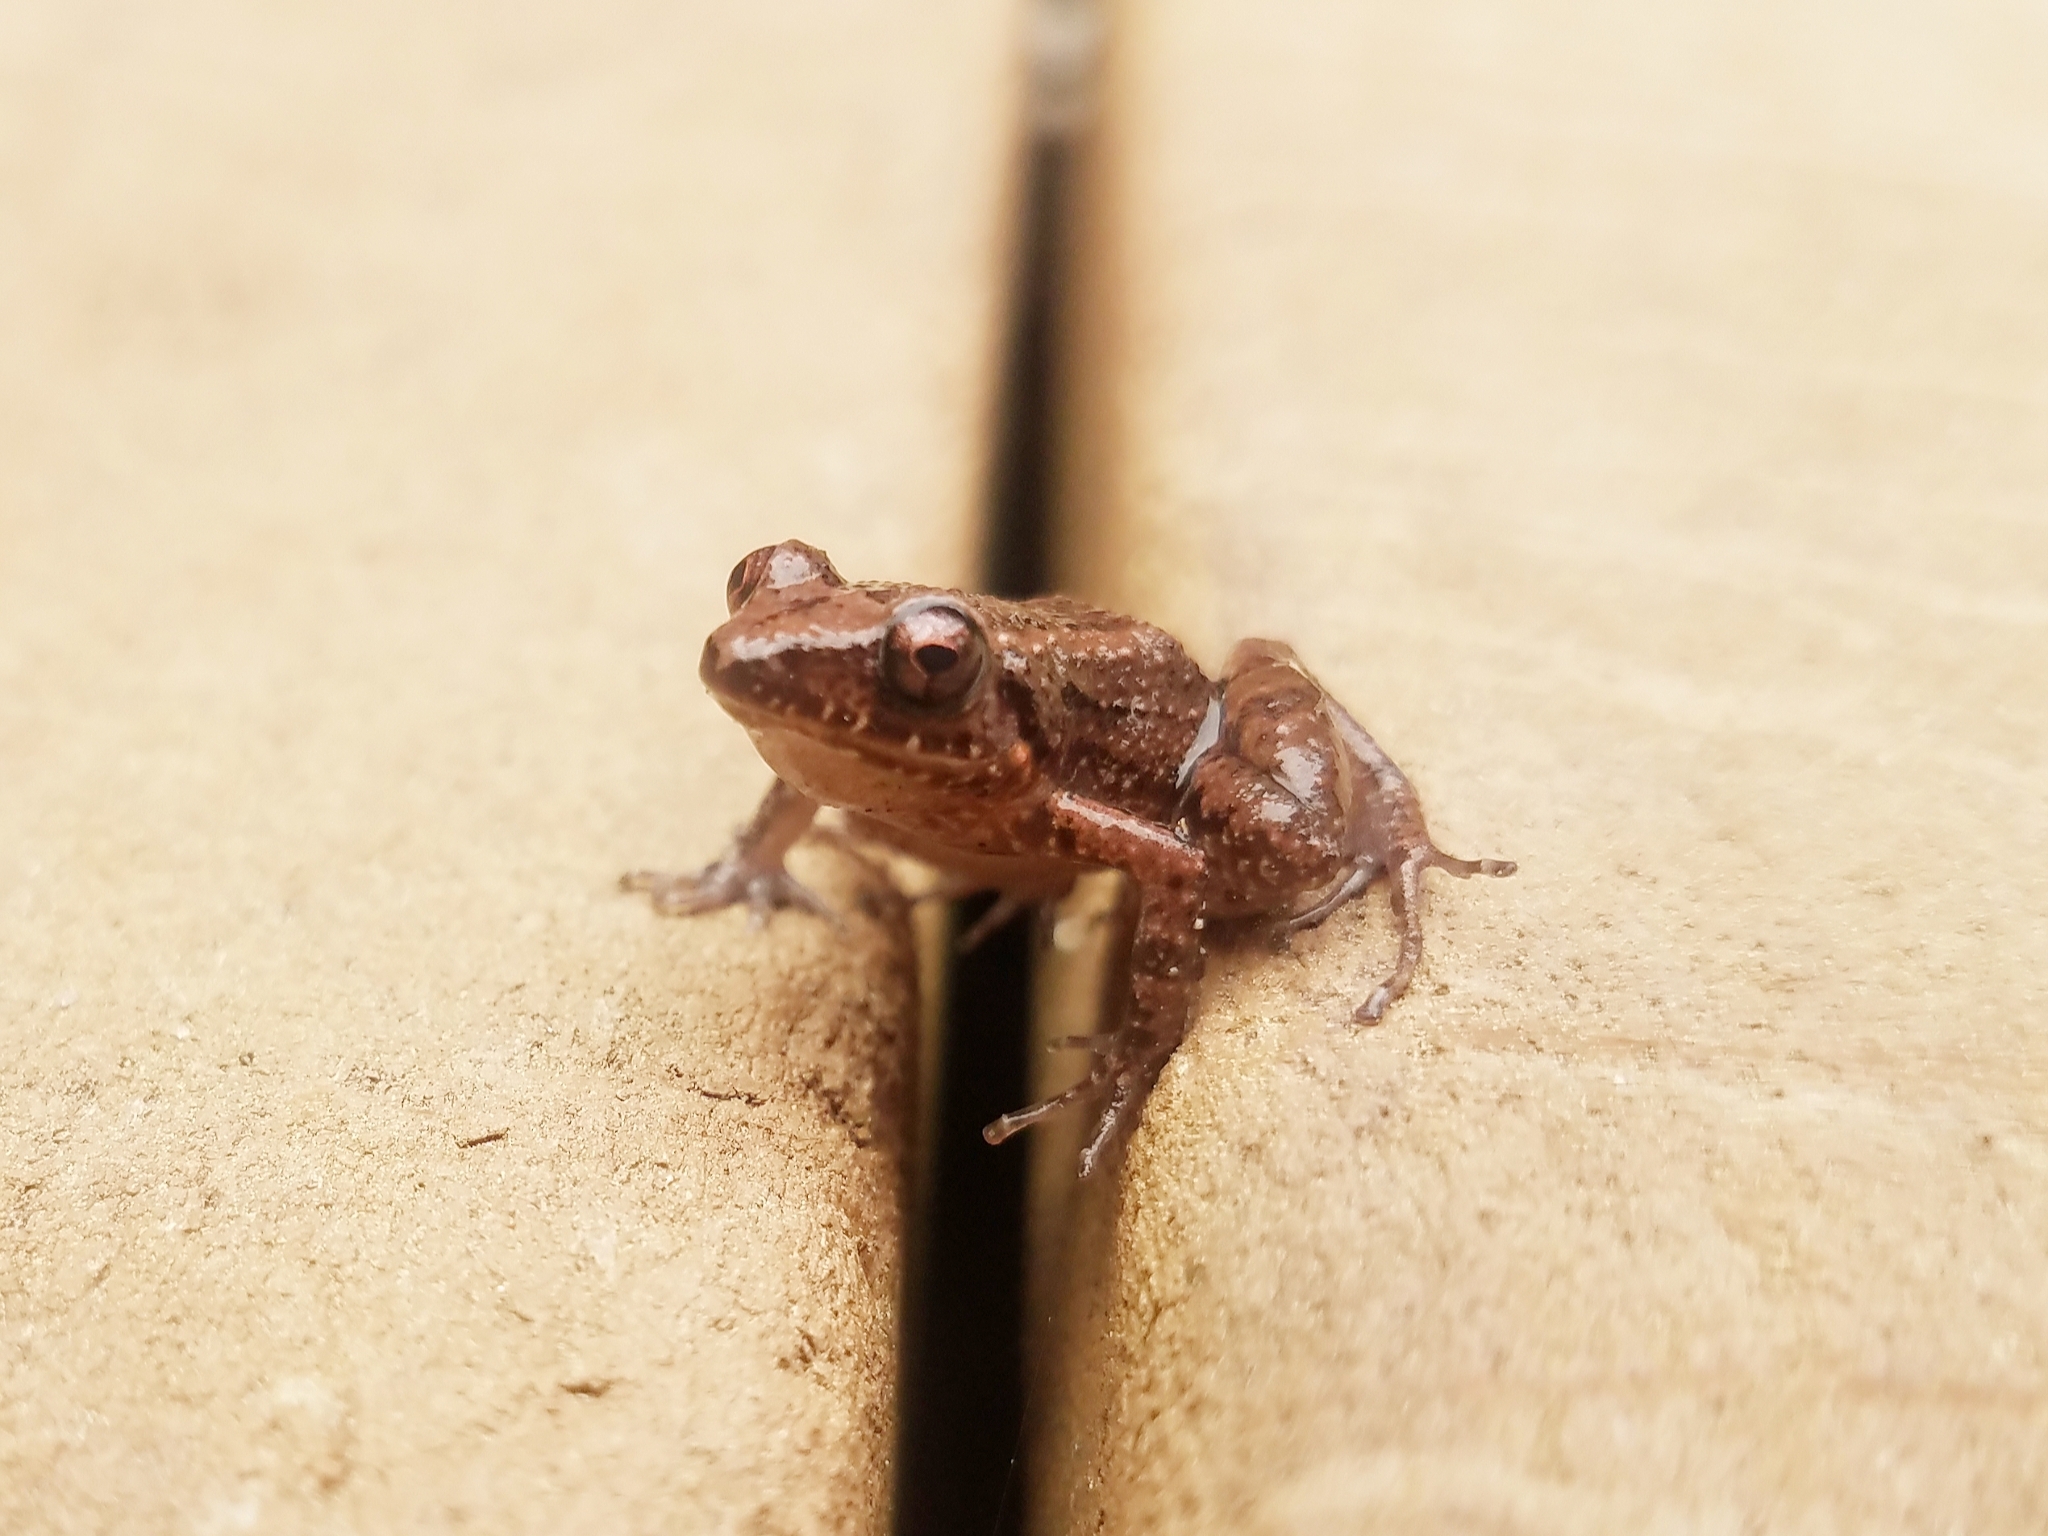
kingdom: Animalia
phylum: Chordata
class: Amphibia
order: Anura
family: Eleutherodactylidae
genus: Eleutherodactylus
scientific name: Eleutherodactylus planirostris
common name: Greenhouse frog
